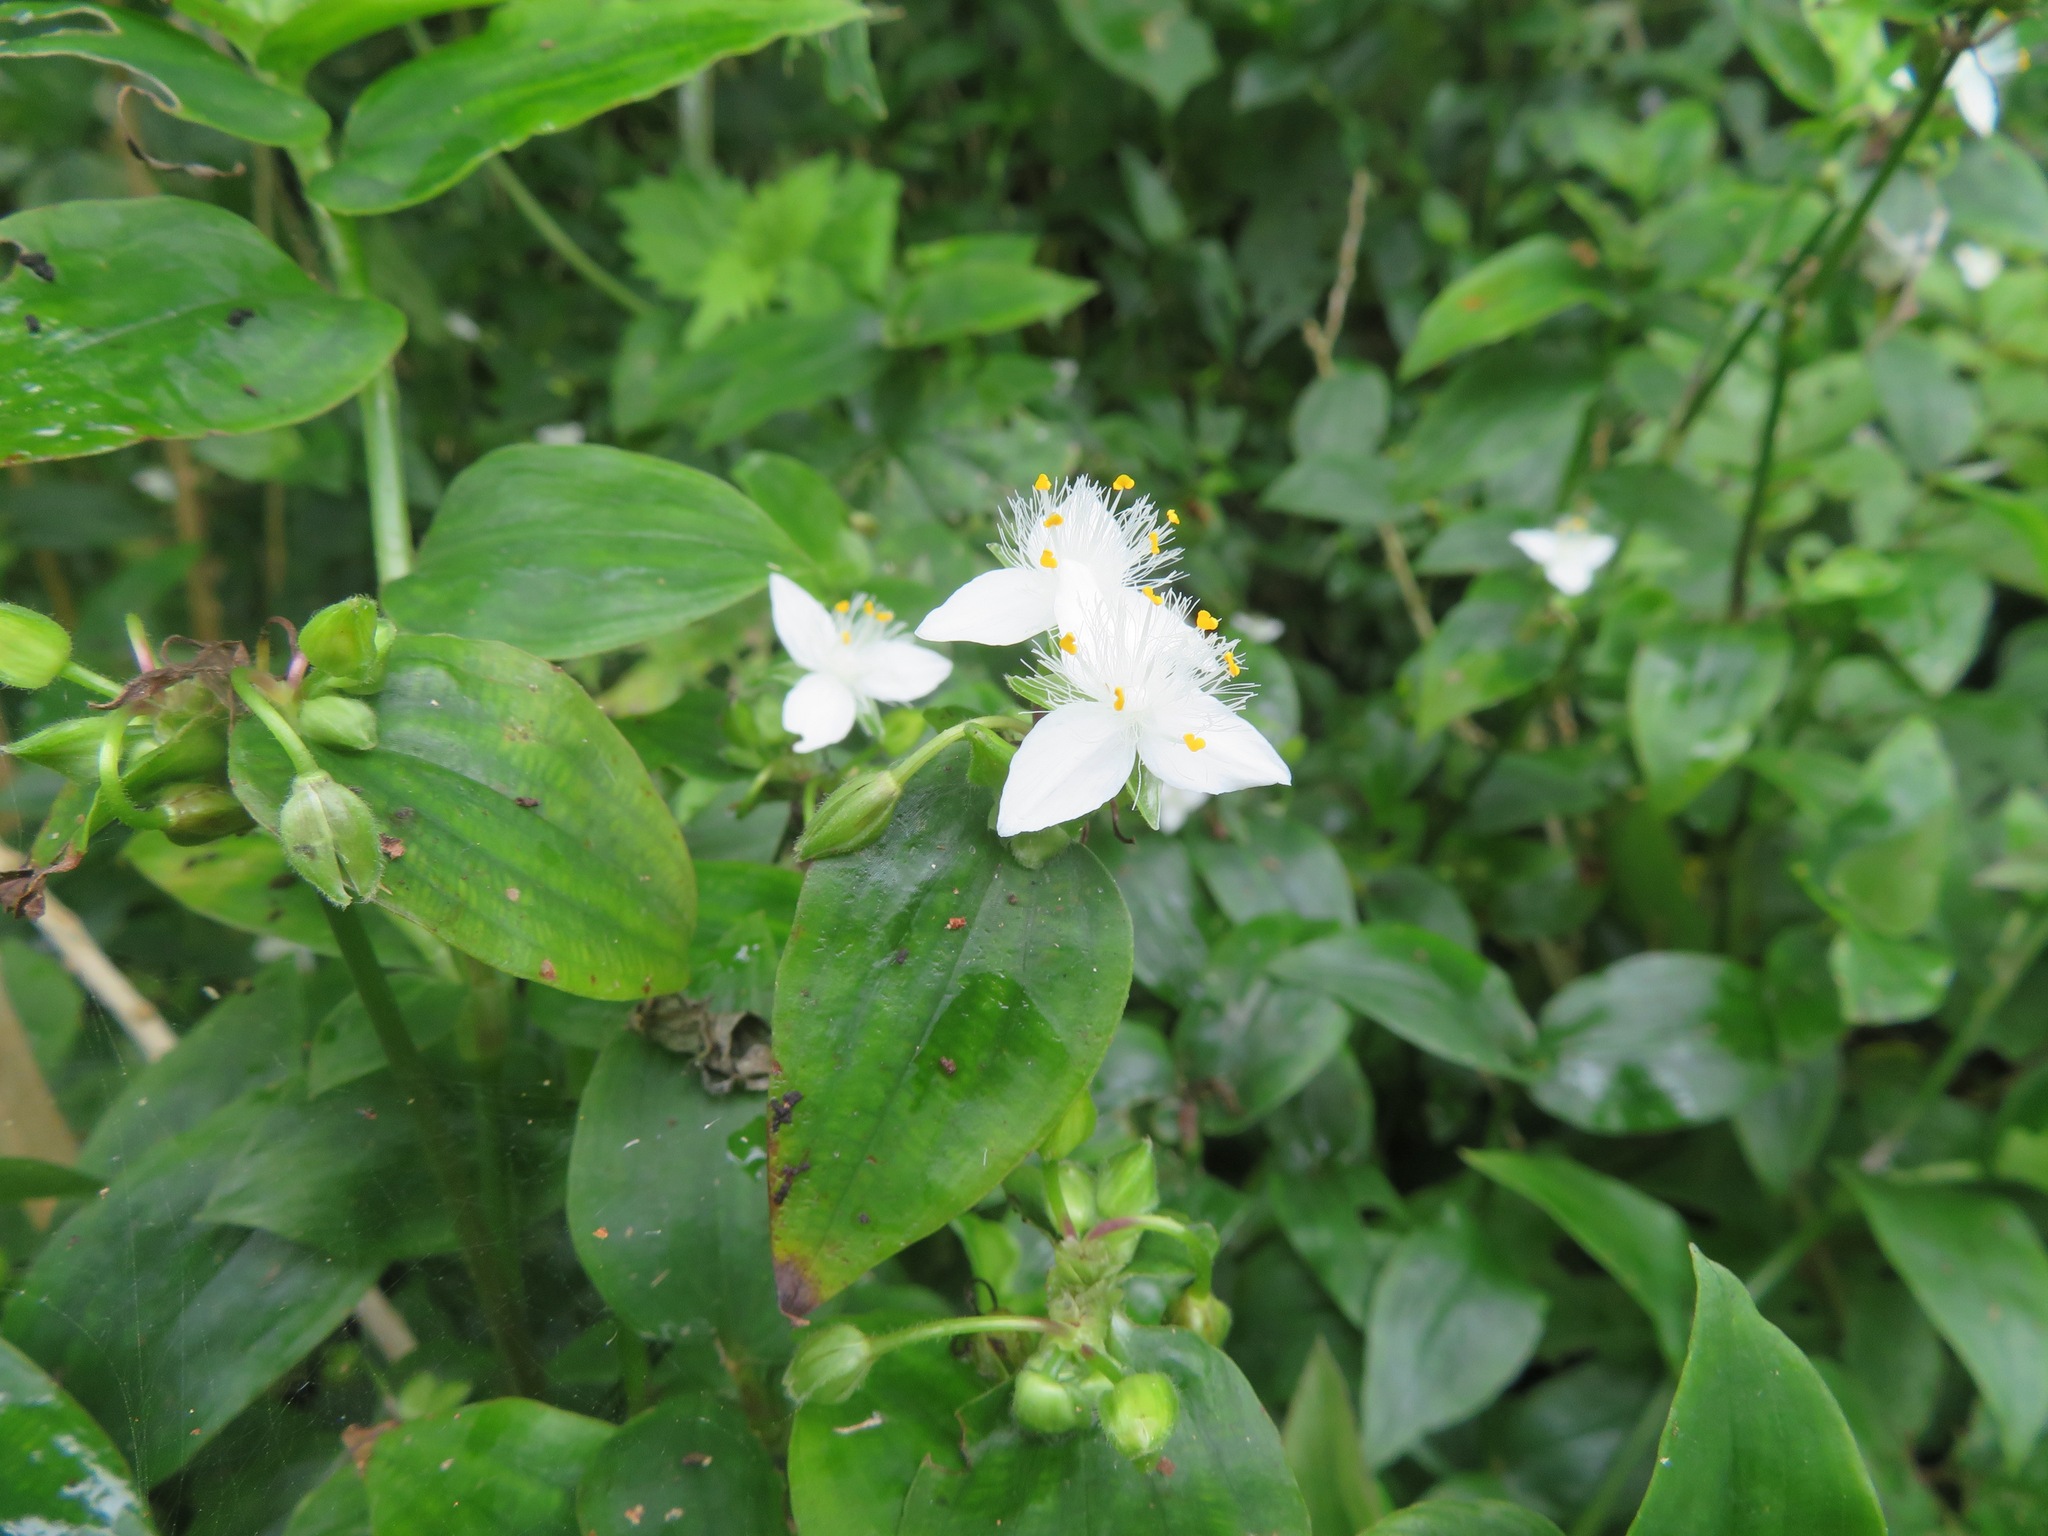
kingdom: Plantae
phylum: Tracheophyta
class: Liliopsida
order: Commelinales
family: Commelinaceae
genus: Tradescantia
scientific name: Tradescantia fluminensis
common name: Wandering-jew
